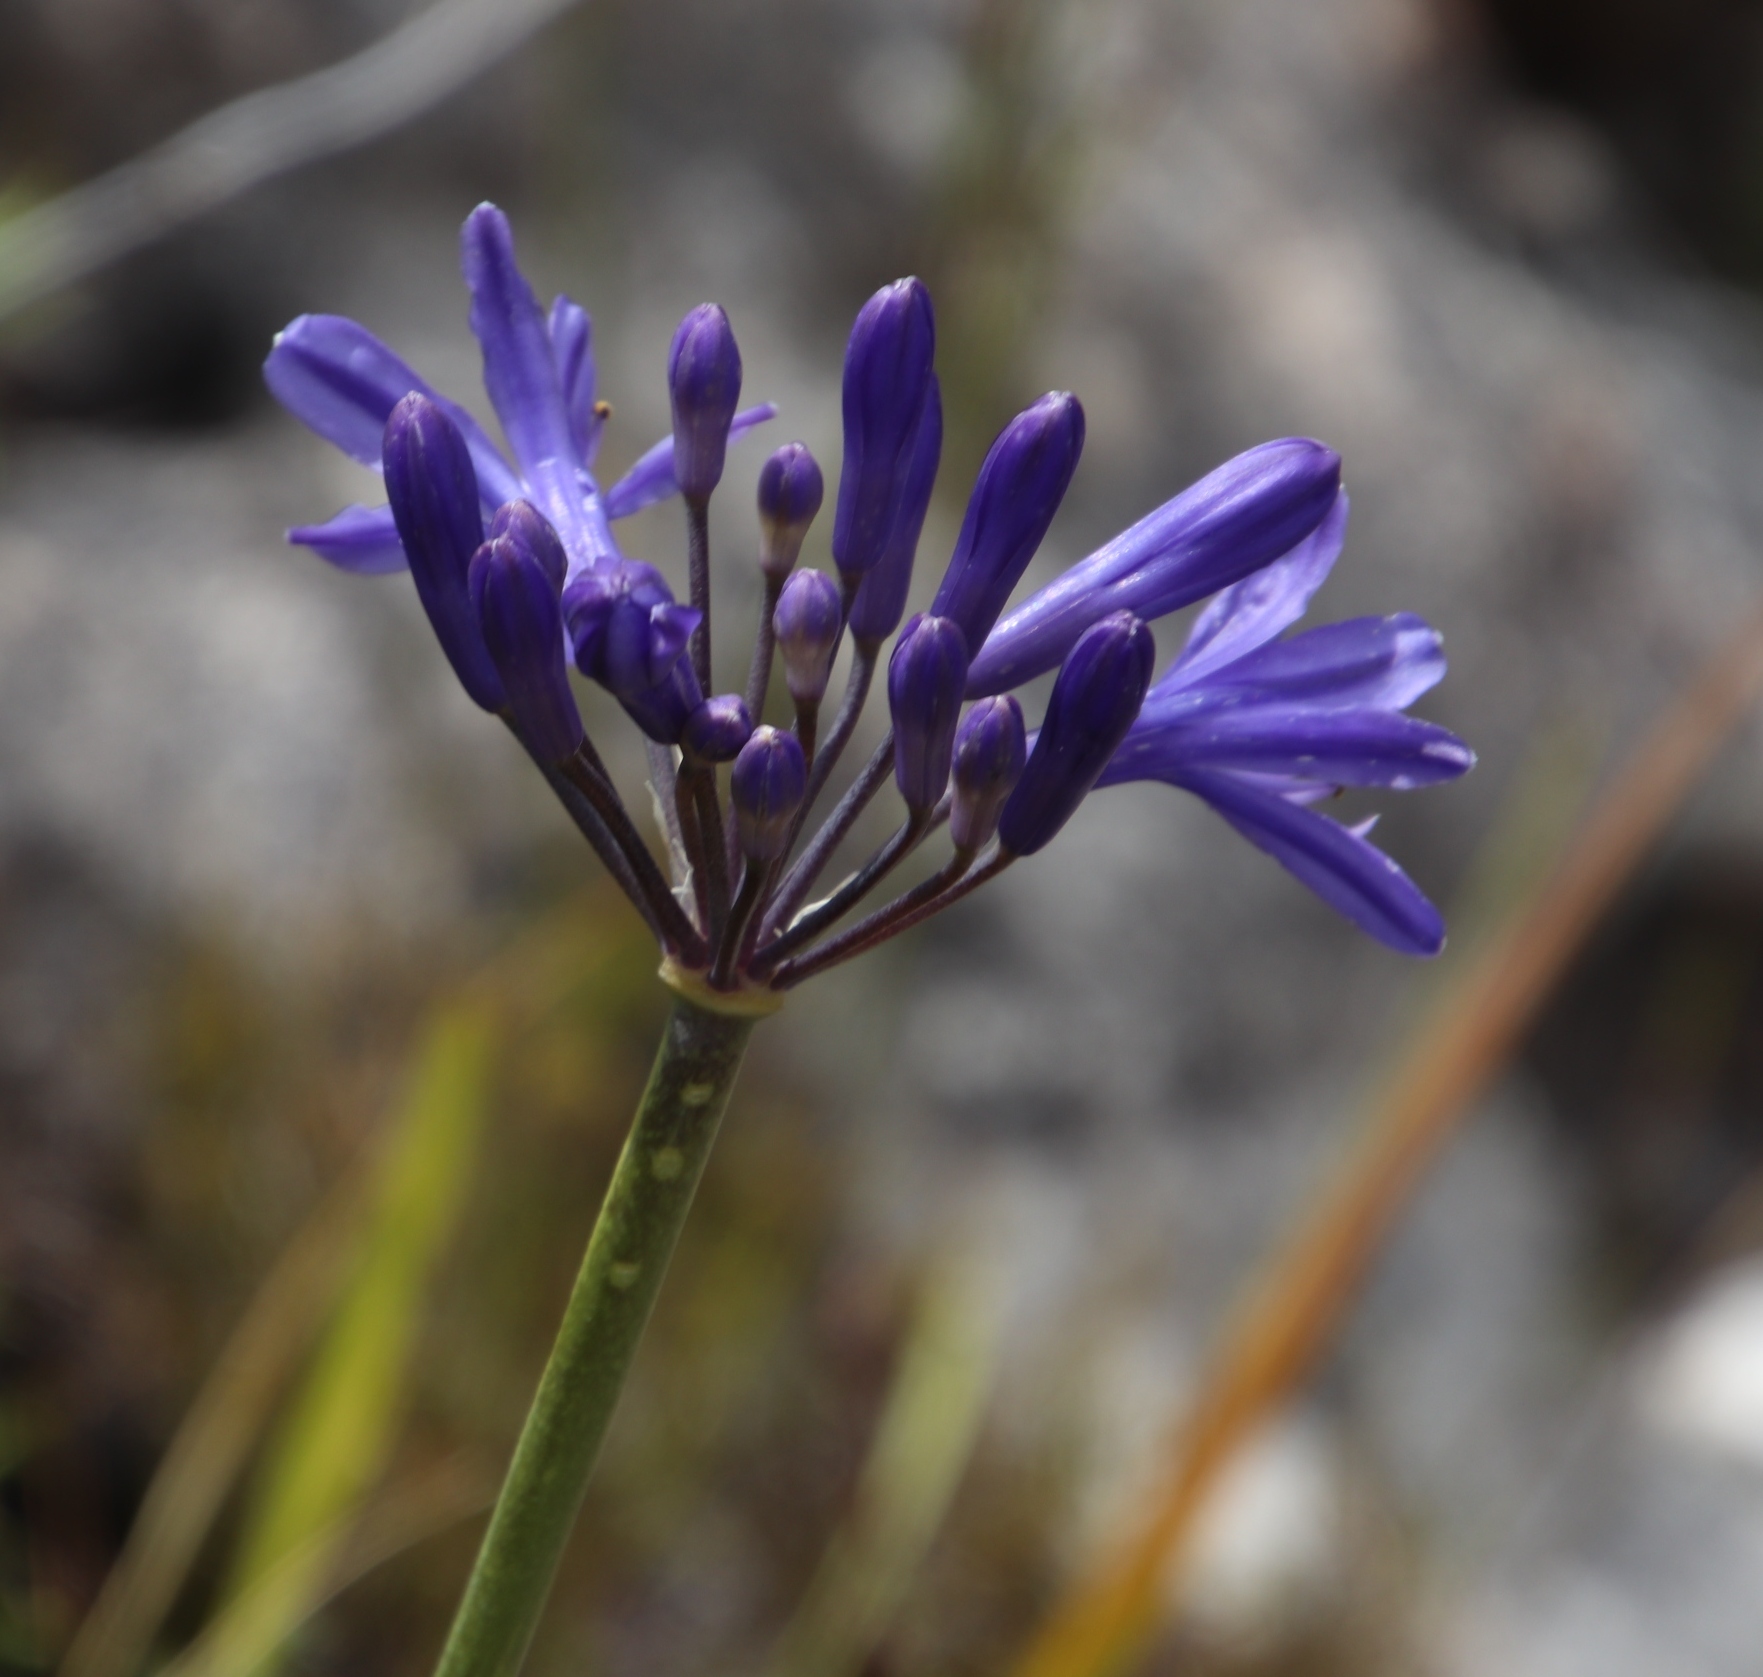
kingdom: Plantae
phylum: Tracheophyta
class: Liliopsida
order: Asparagales
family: Amaryllidaceae
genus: Agapanthus
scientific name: Agapanthus africanus
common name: Lily-of-the-nile
